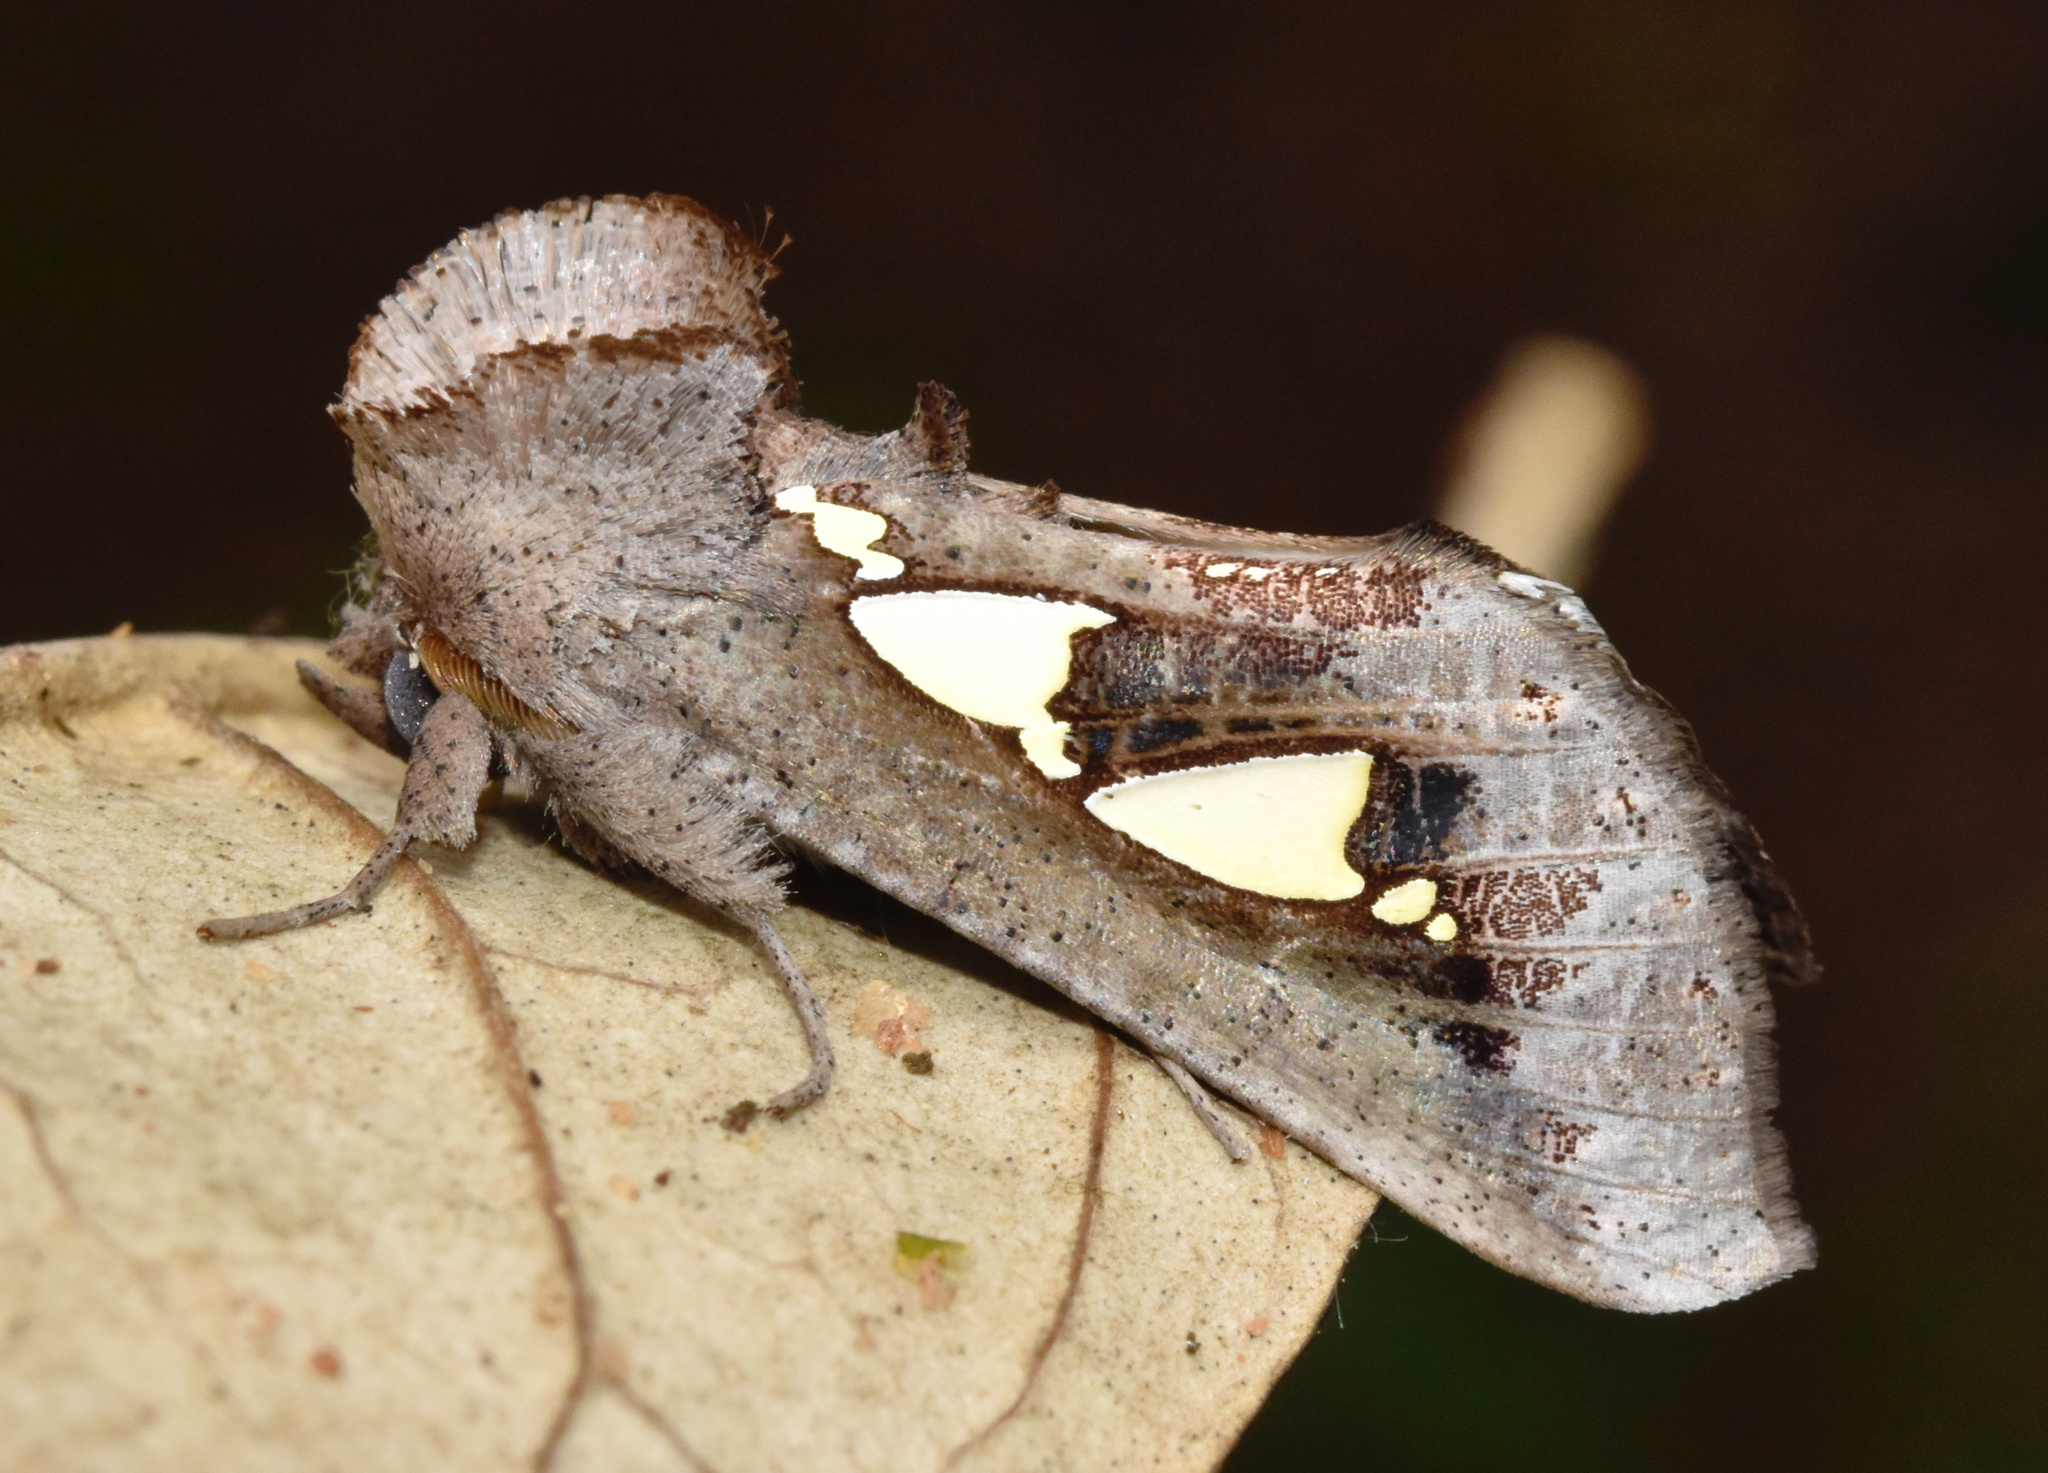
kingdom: Animalia
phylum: Arthropoda
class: Insecta
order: Lepidoptera
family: Erebidae
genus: Antiophlebia
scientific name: Antiophlebia bracteata
